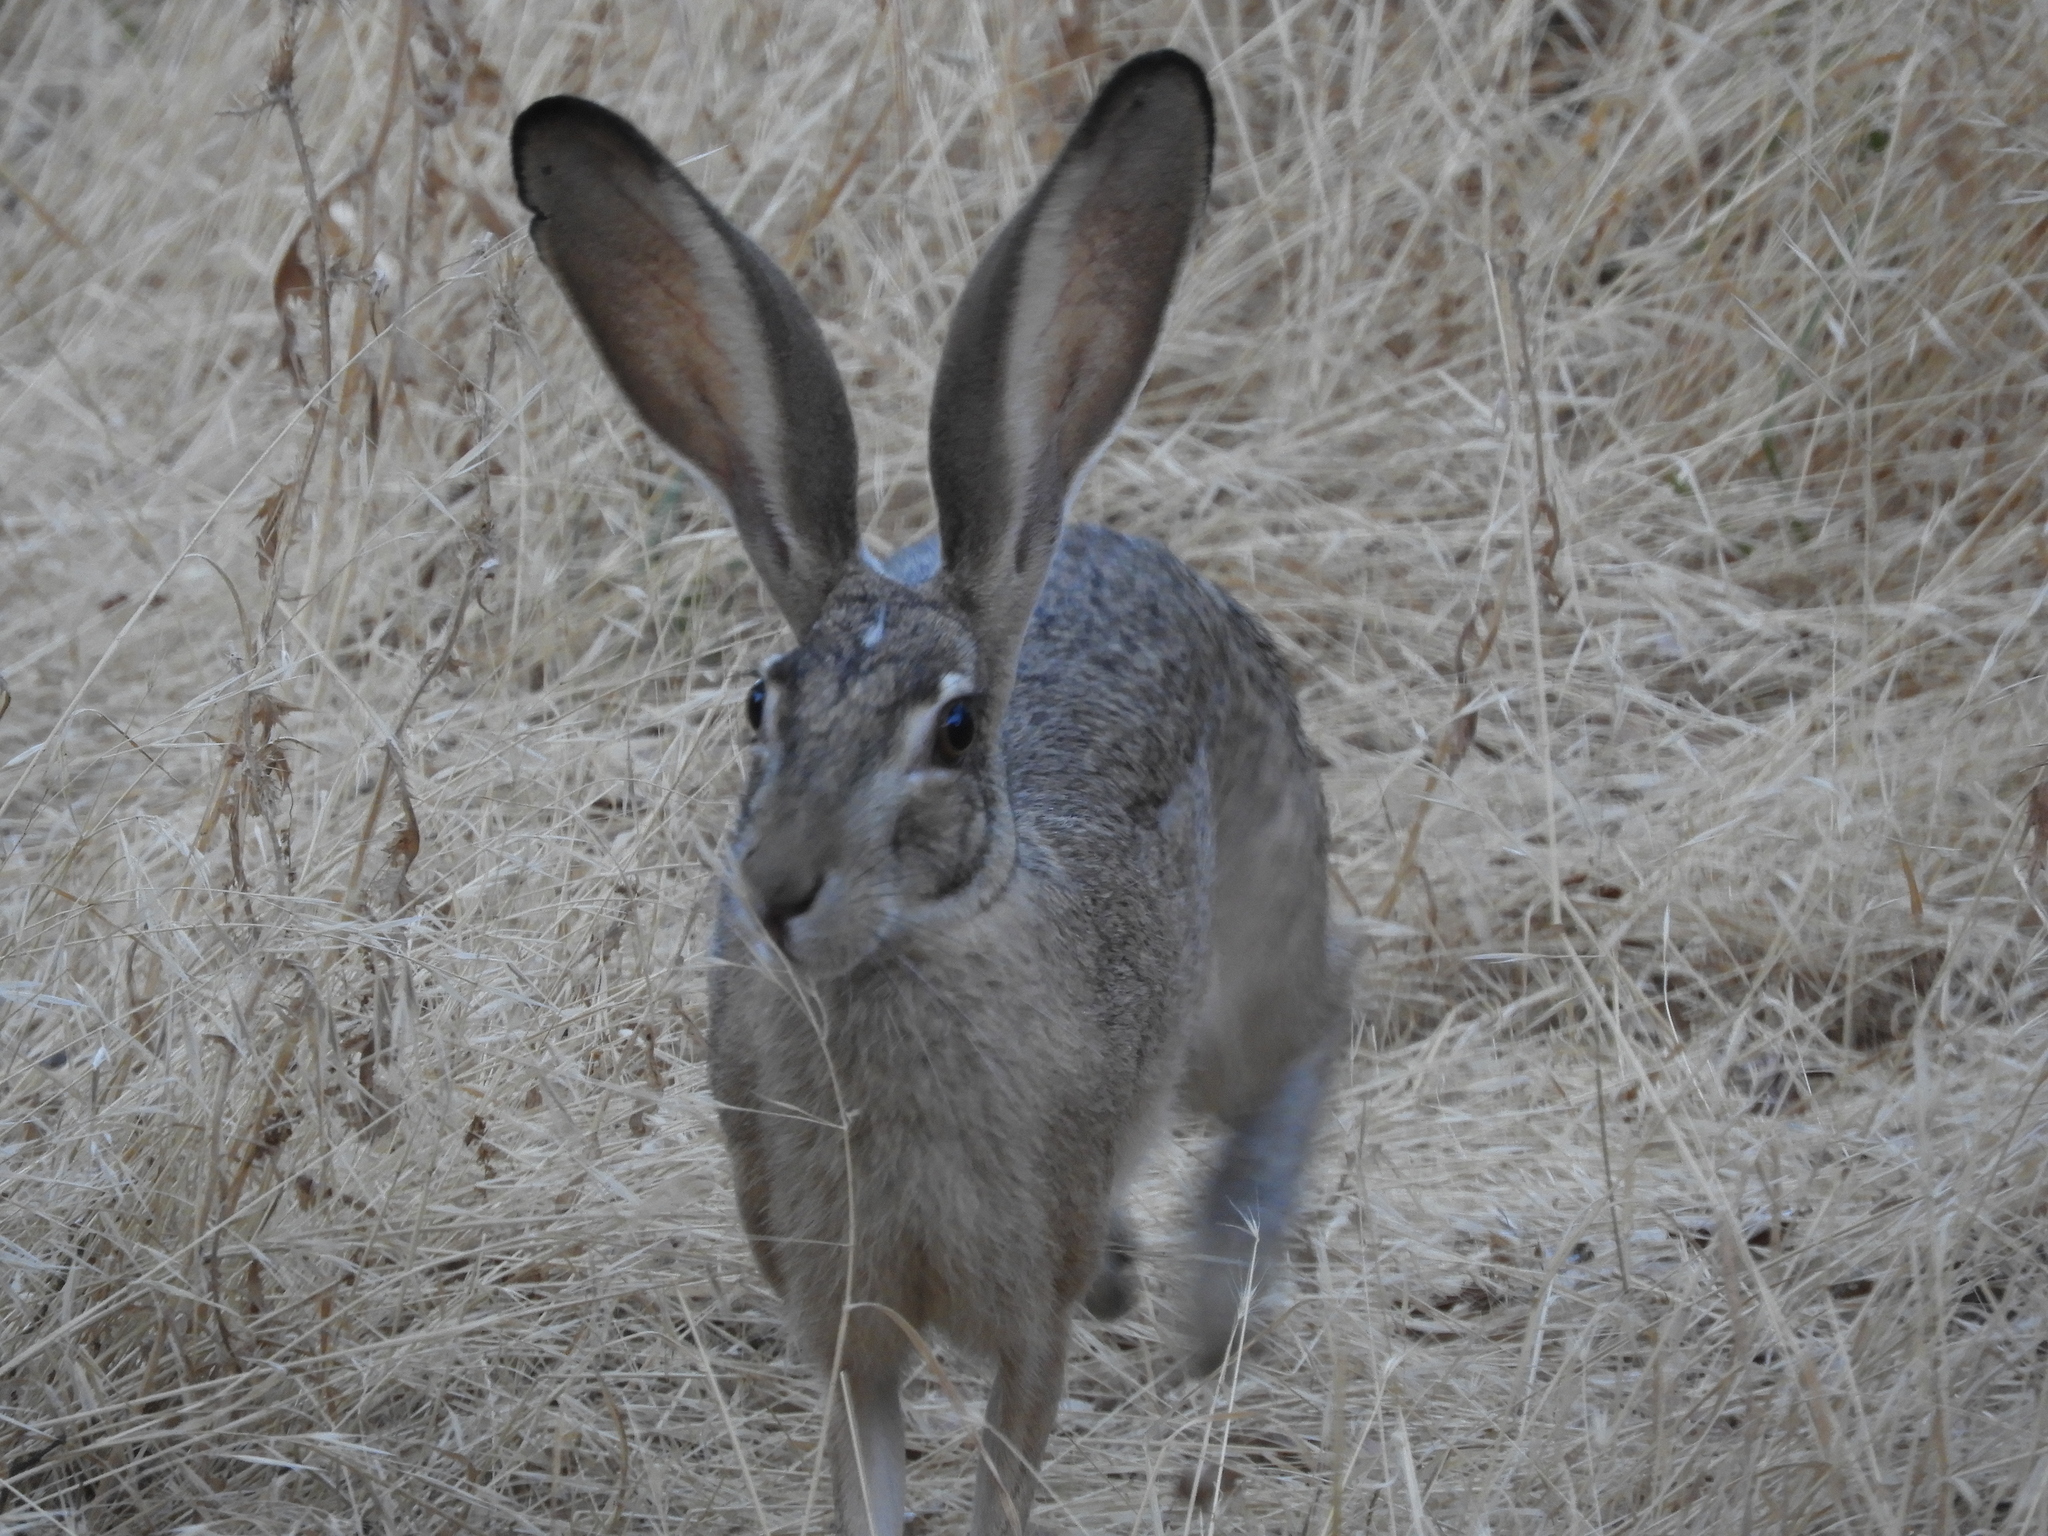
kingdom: Animalia
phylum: Chordata
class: Mammalia
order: Lagomorpha
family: Leporidae
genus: Lepus
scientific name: Lepus californicus
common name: Black-tailed jackrabbit
